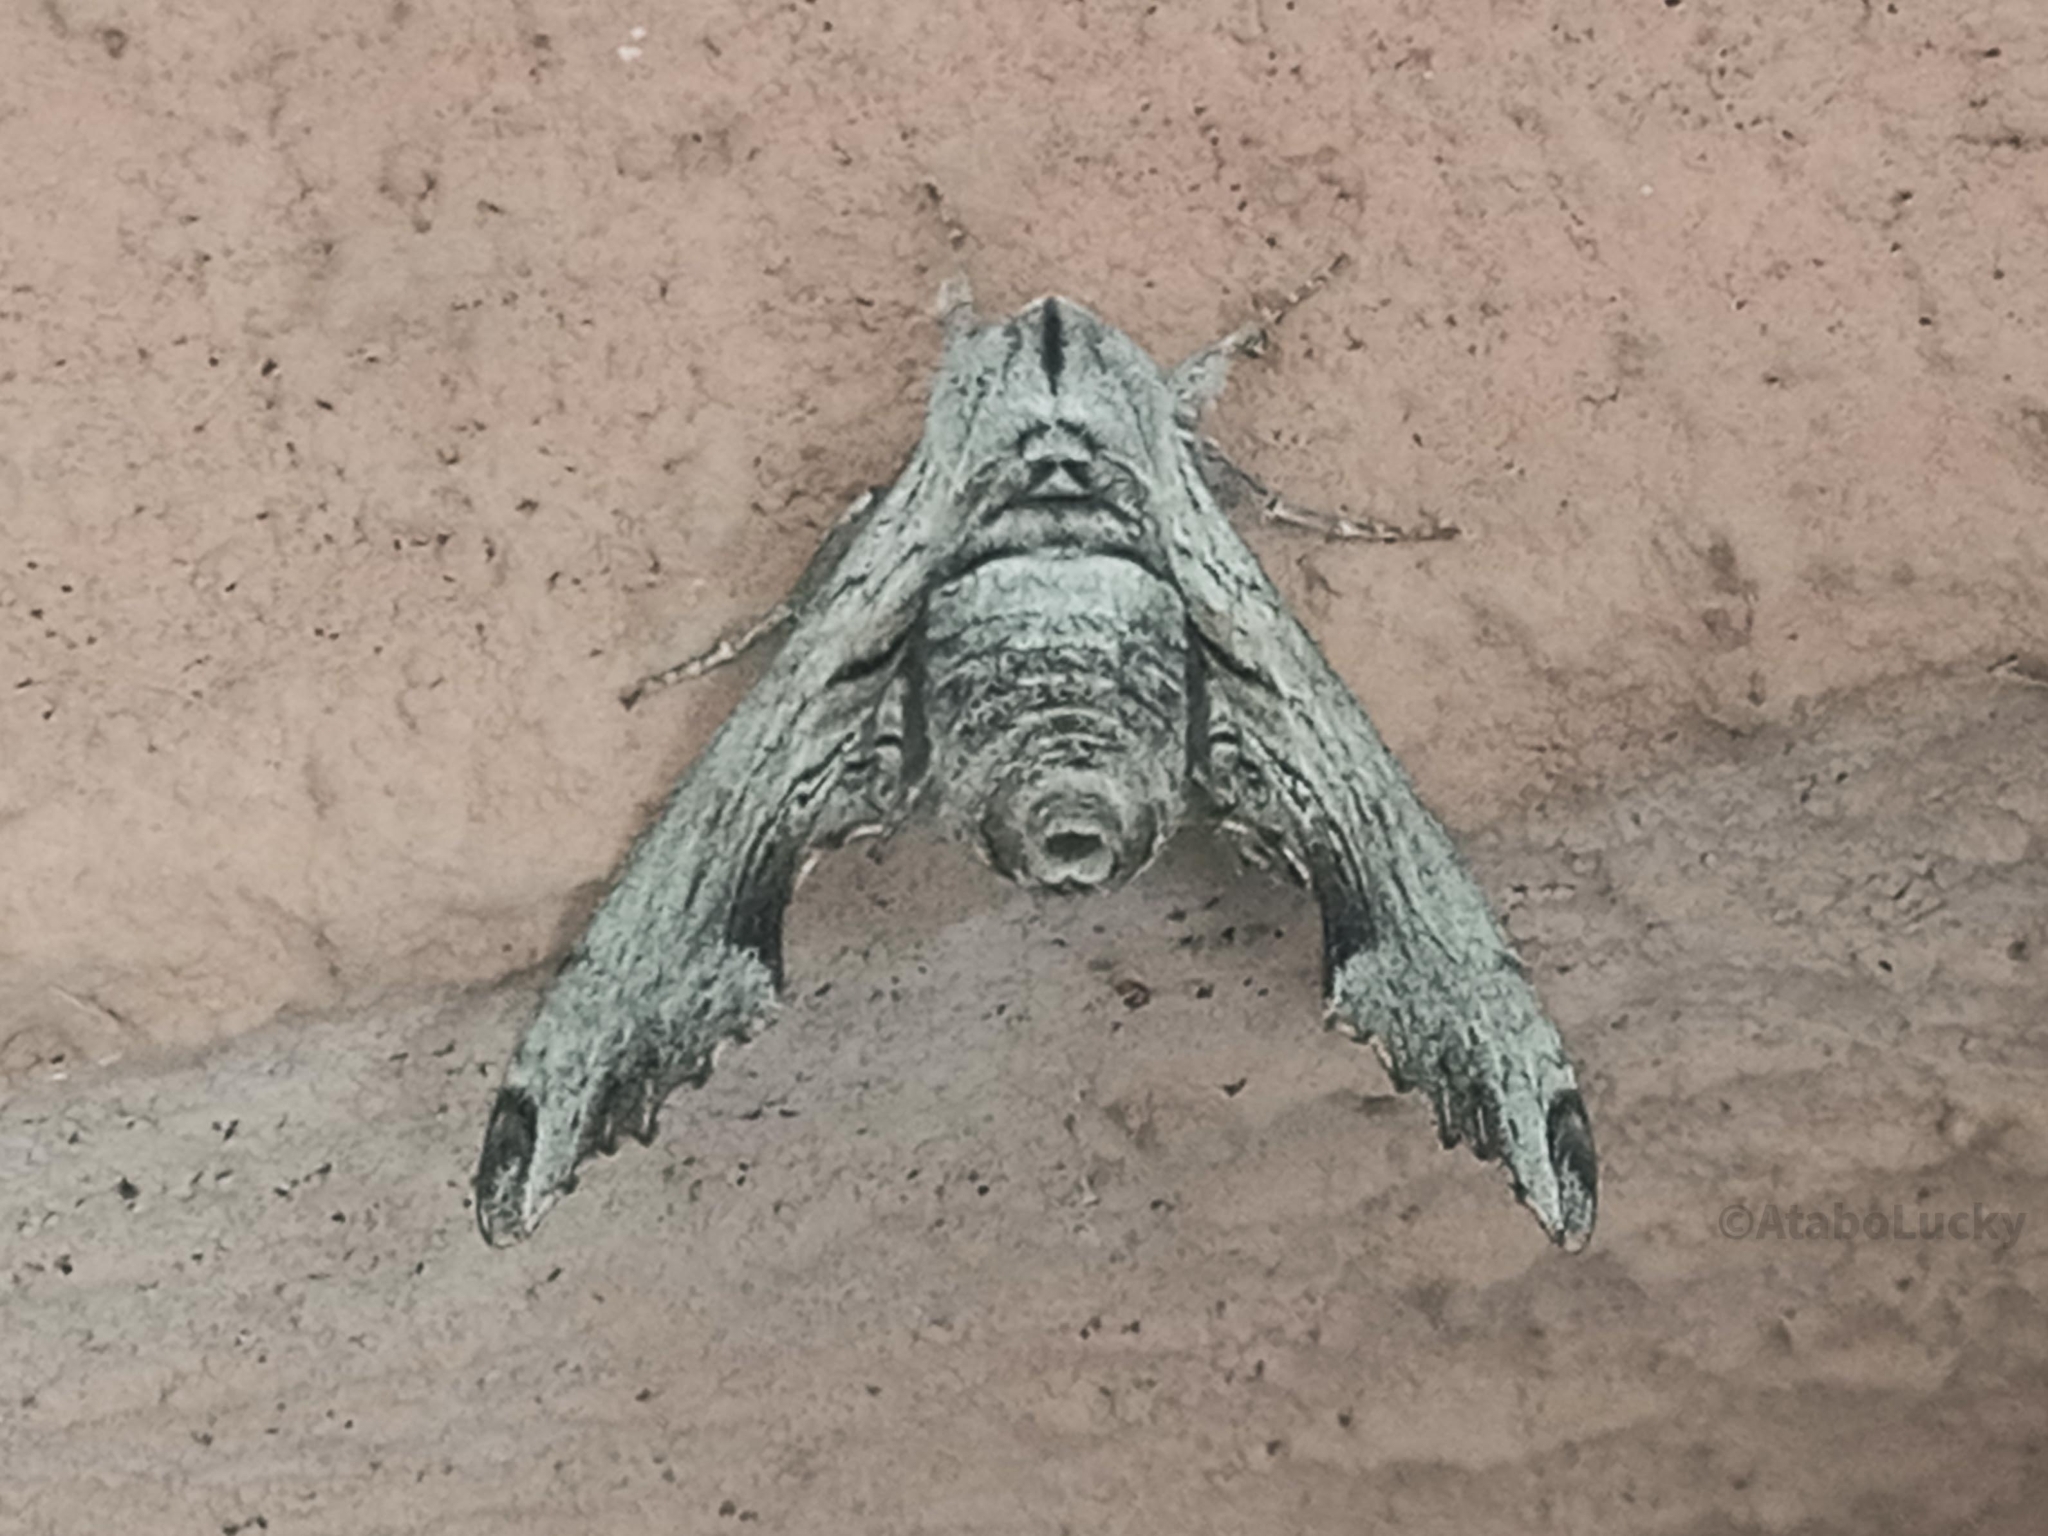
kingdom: Animalia
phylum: Arthropoda
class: Insecta
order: Lepidoptera
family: Sphingidae
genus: Oplerclanis
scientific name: Oplerclanis boisduvali
